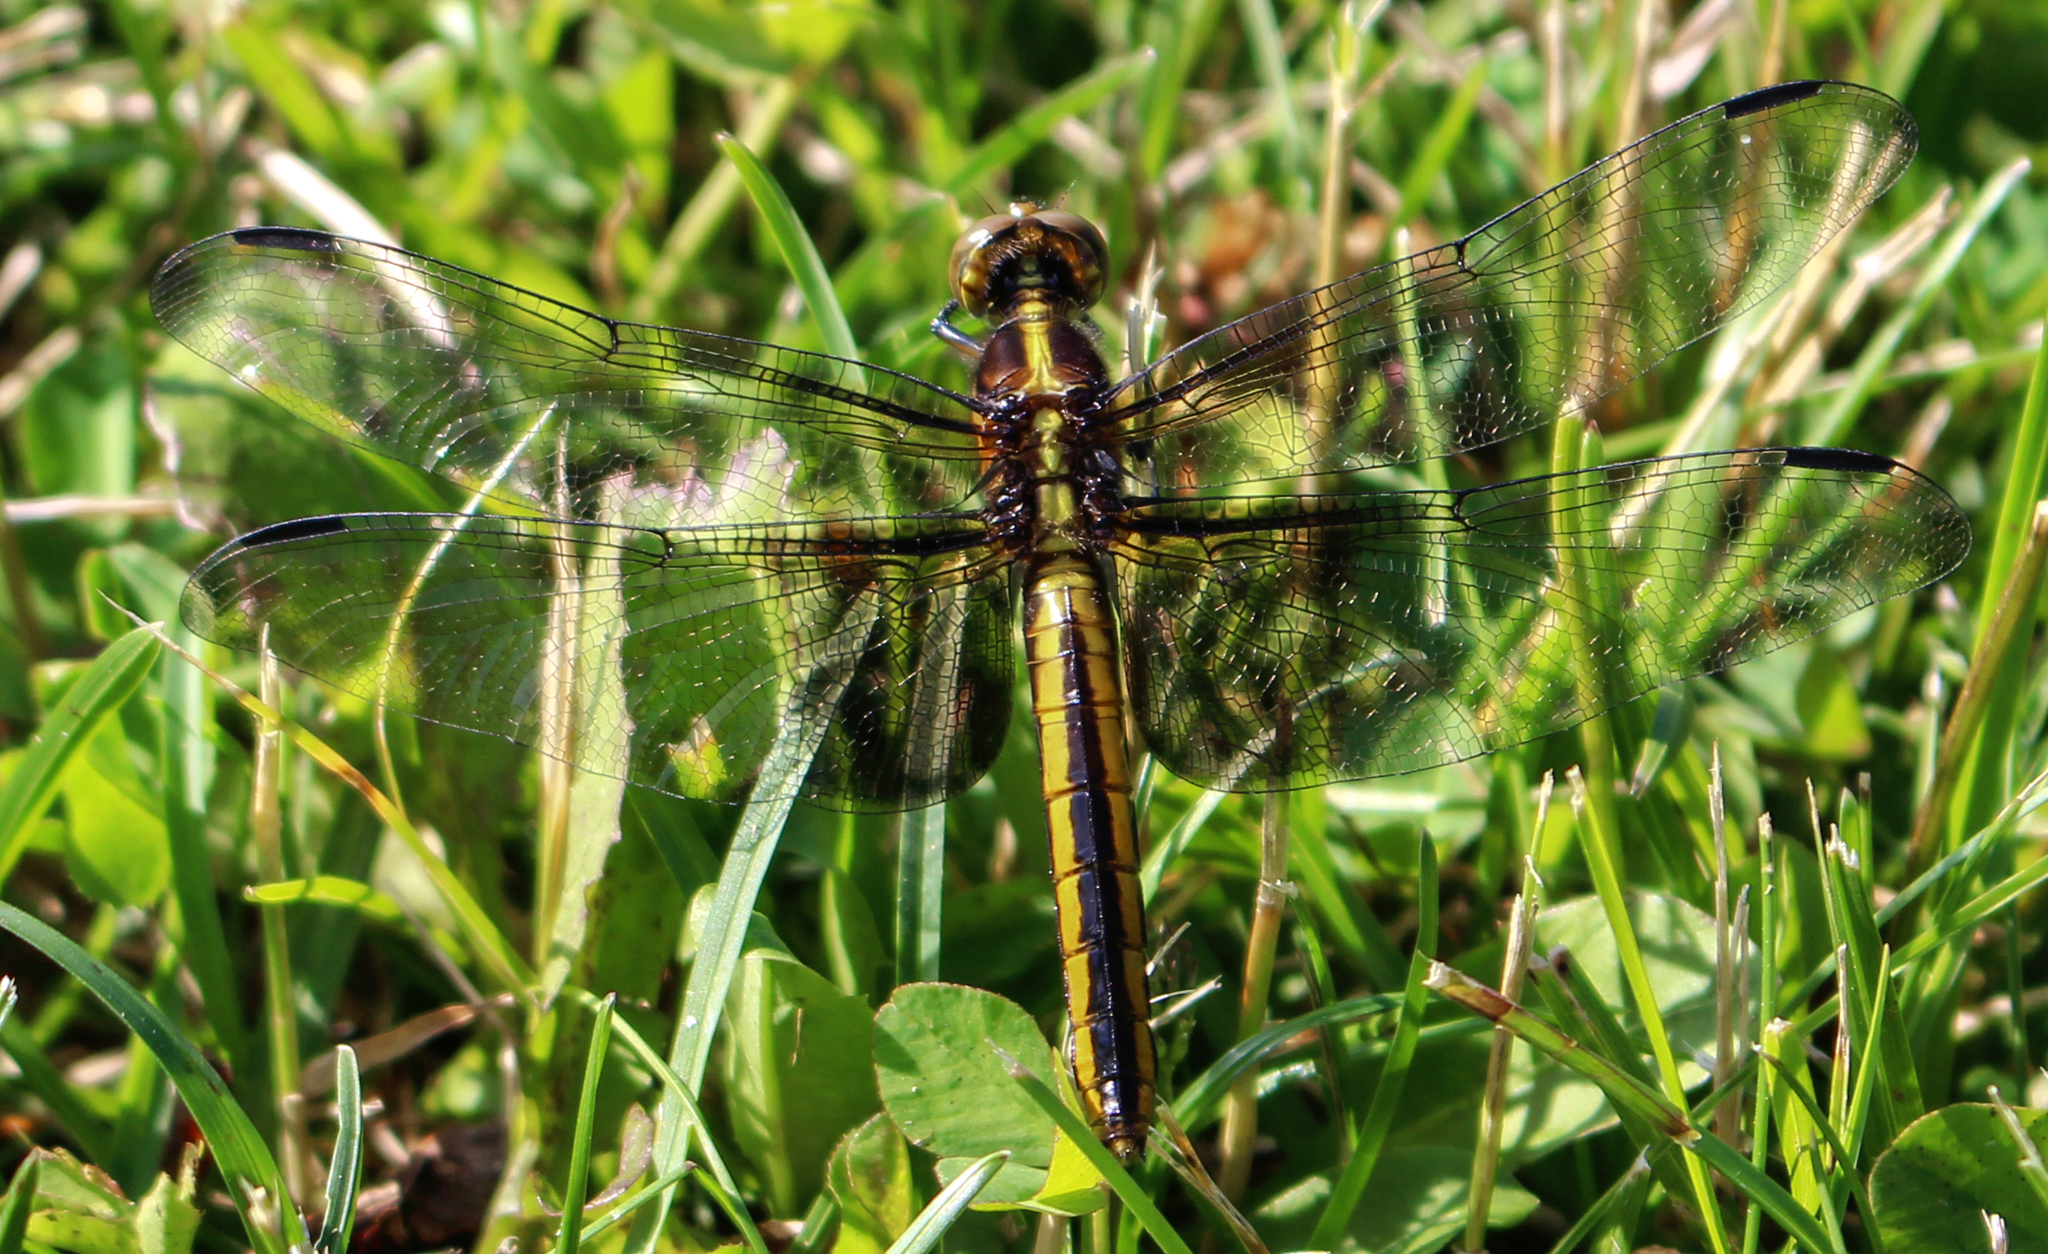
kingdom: Animalia
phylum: Arthropoda
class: Insecta
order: Odonata
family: Libellulidae
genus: Libellula
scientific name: Libellula luctuosa
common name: Widow skimmer
